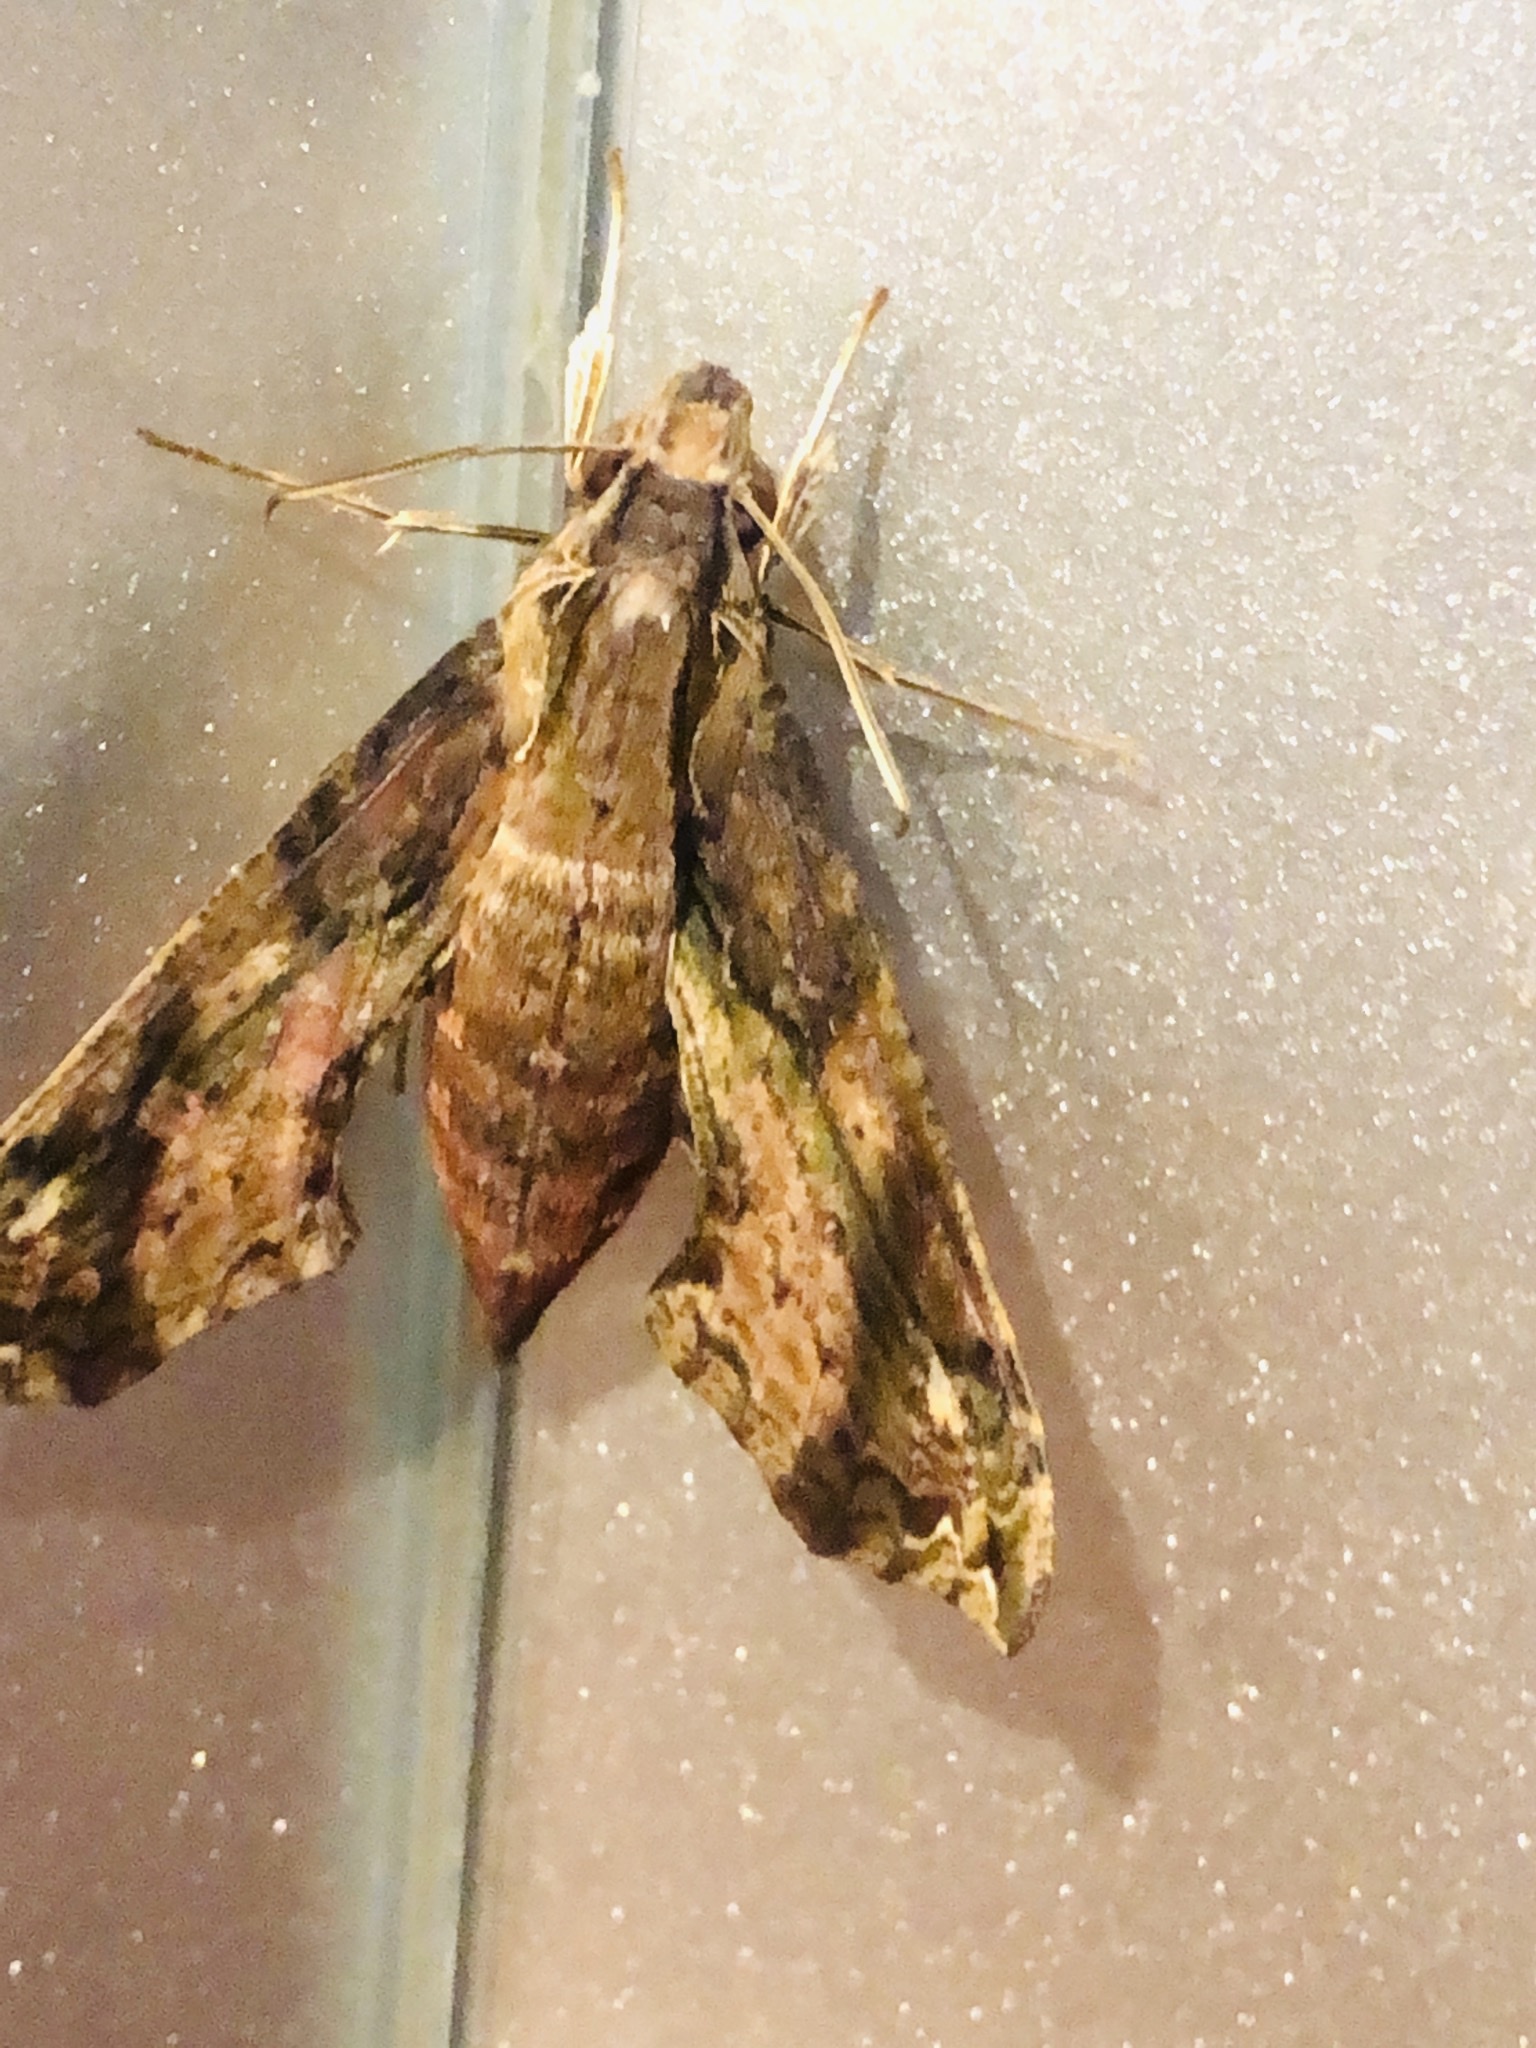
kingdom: Animalia
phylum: Arthropoda
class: Insecta
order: Lepidoptera
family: Sphingidae
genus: Eupanacra
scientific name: Eupanacra splendens
